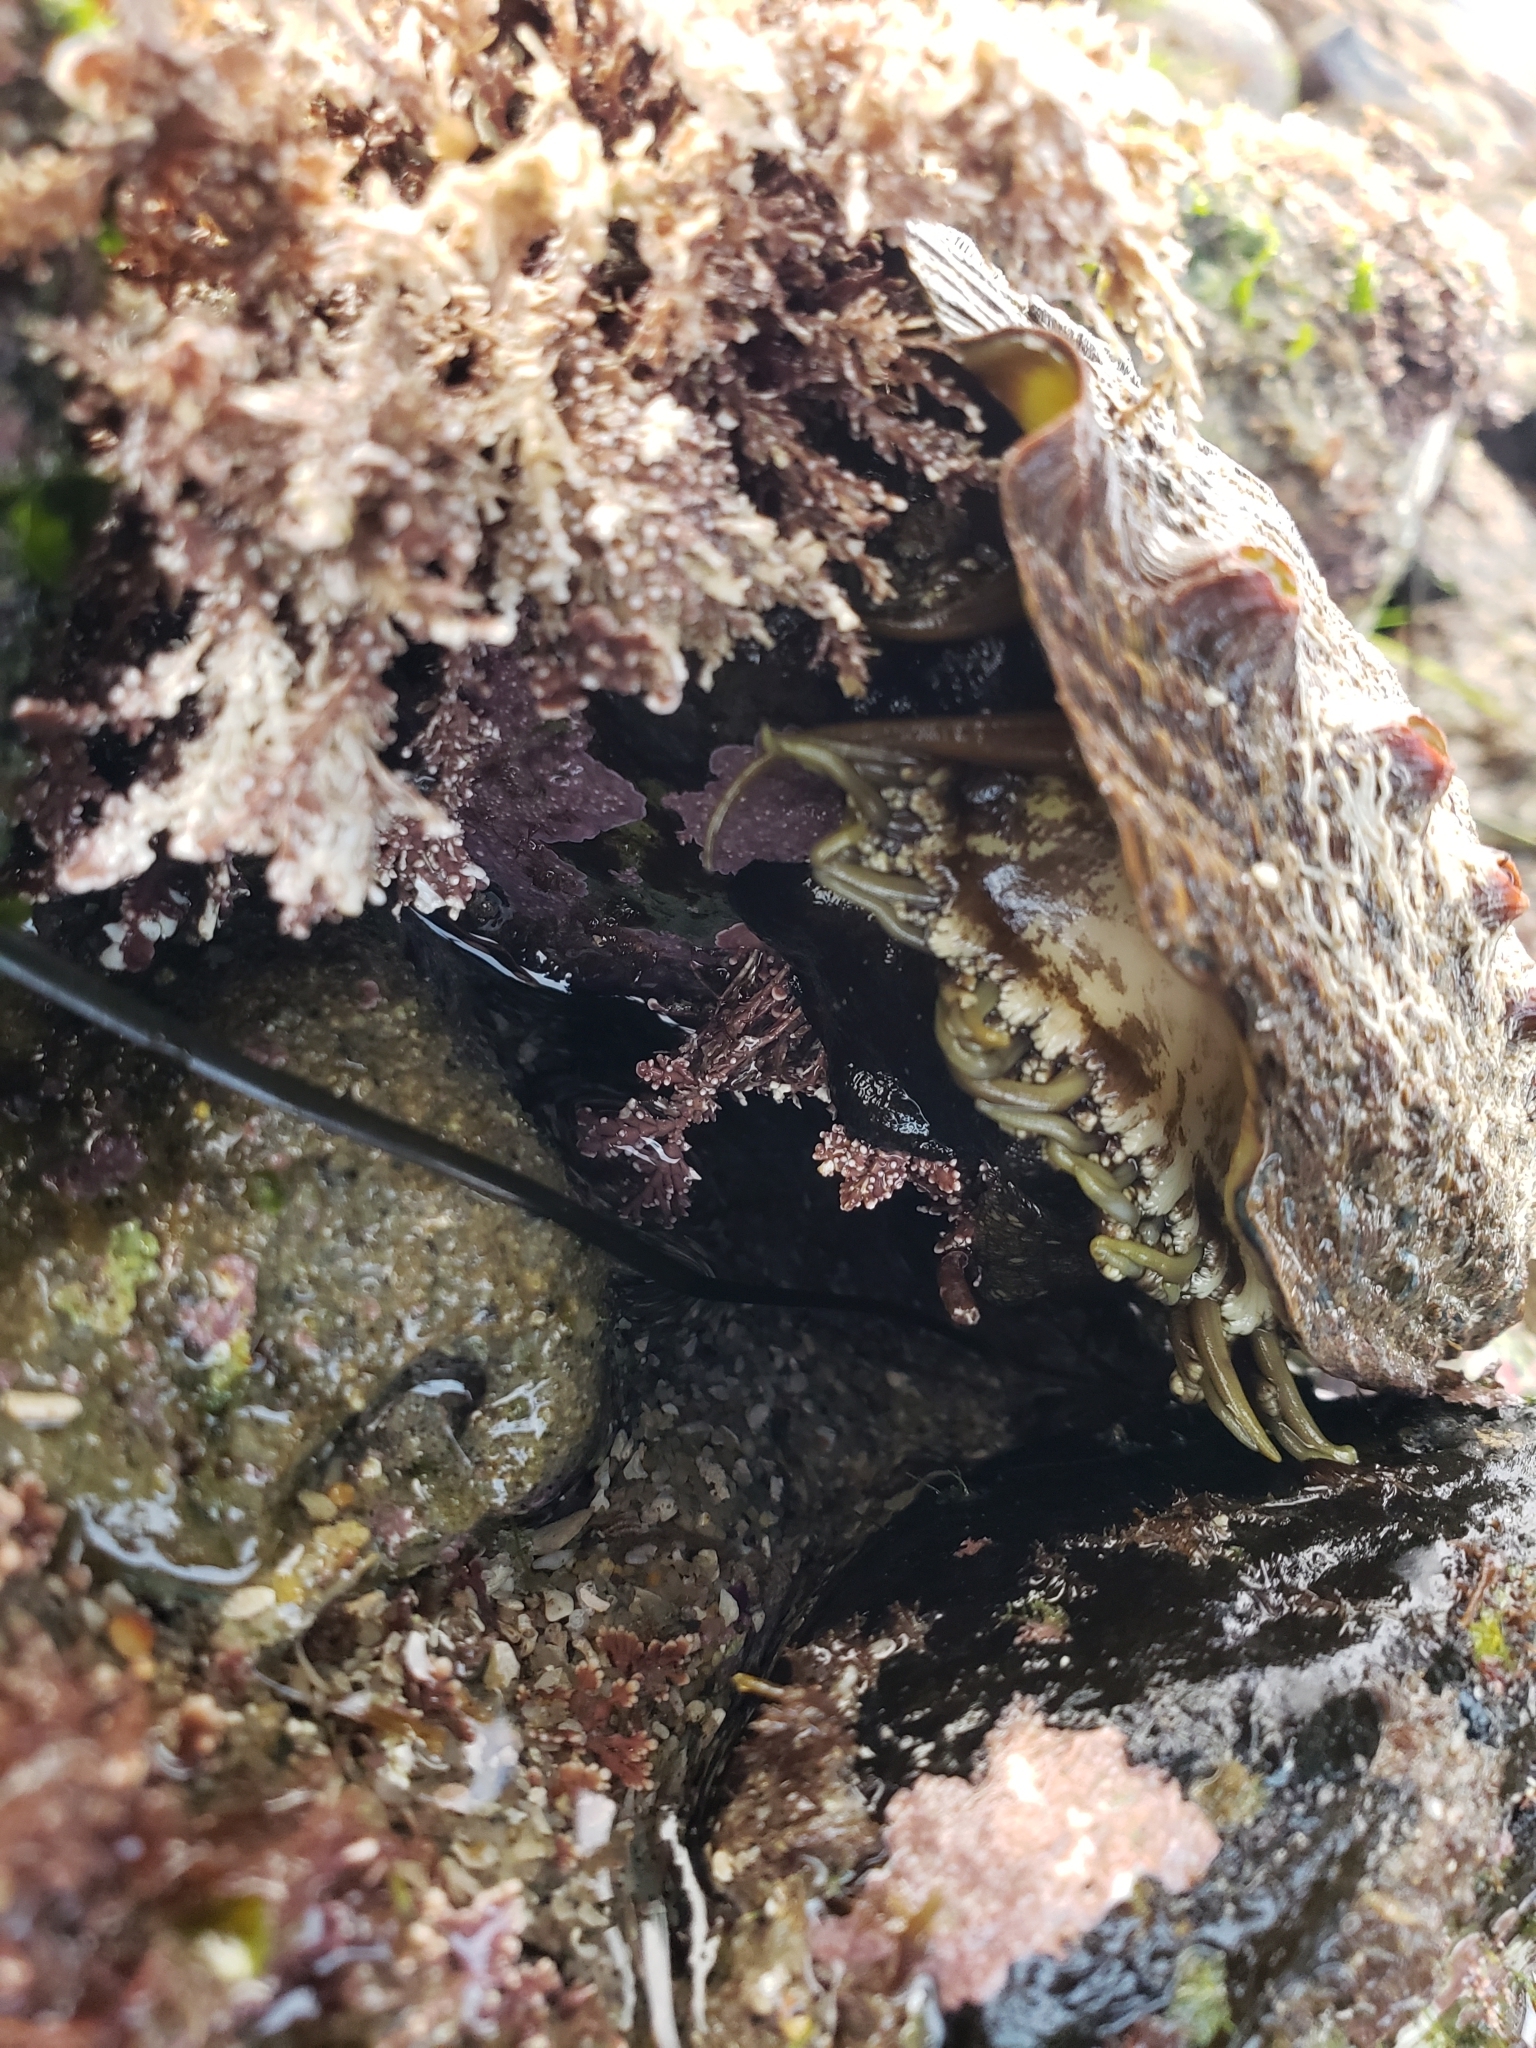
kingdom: Animalia
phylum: Mollusca
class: Gastropoda
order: Lepetellida
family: Haliotidae
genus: Haliotis
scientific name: Haliotis fulgens
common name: Green abalone
